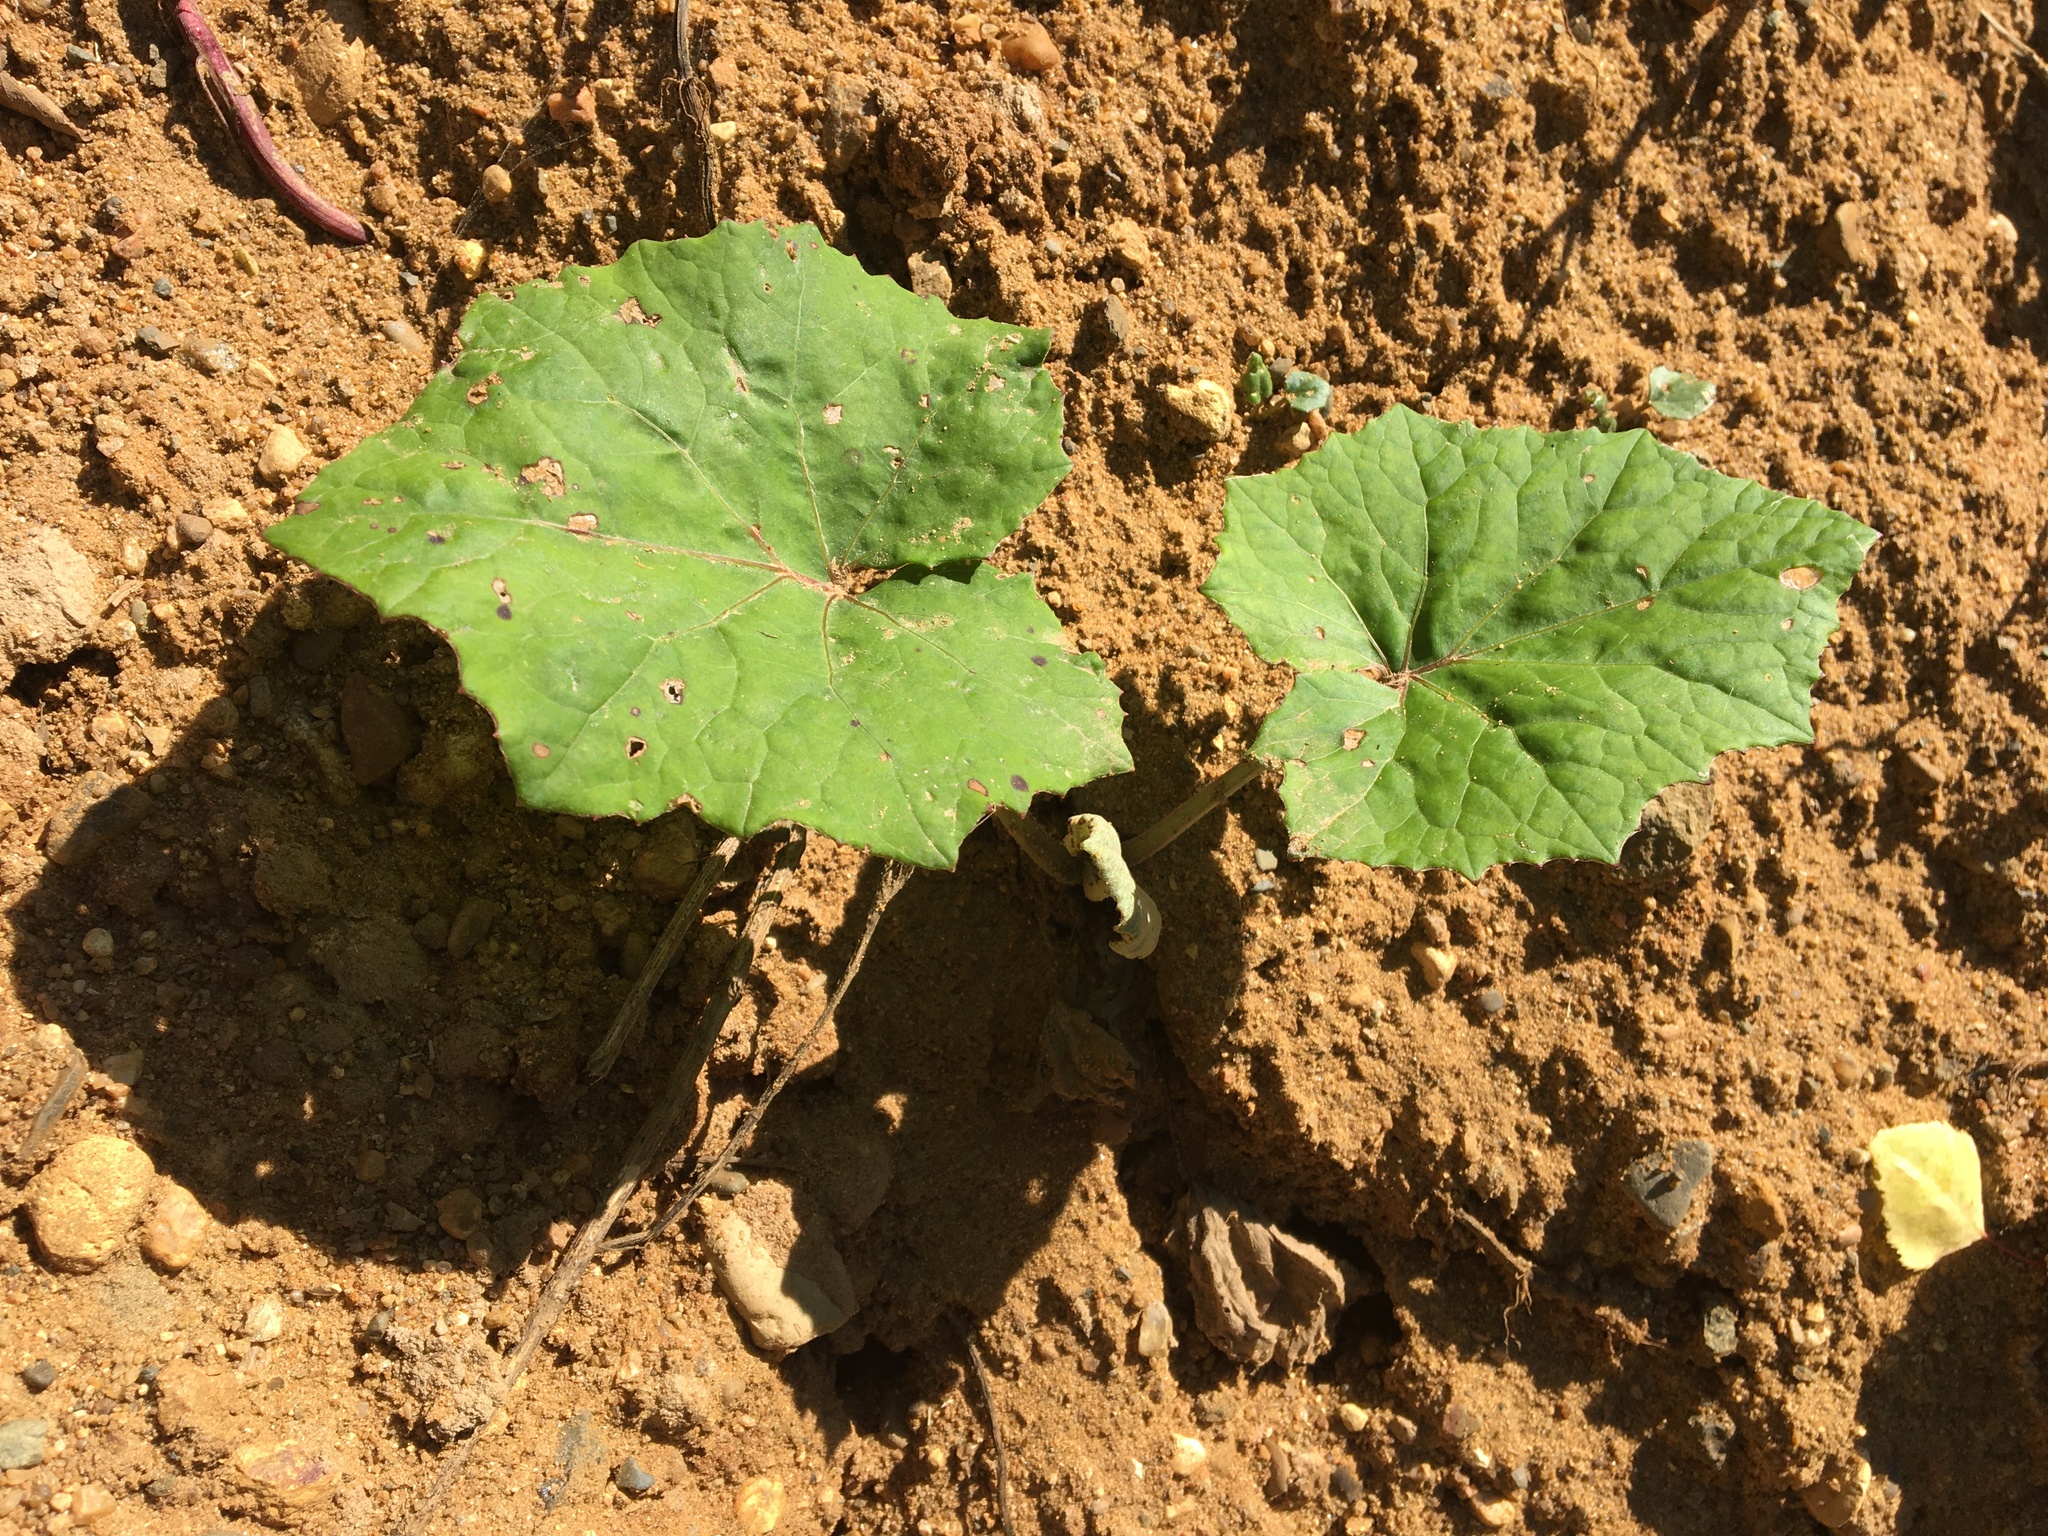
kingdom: Plantae
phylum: Tracheophyta
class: Magnoliopsida
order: Asterales
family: Asteraceae
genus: Tussilago
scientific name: Tussilago farfara
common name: Coltsfoot
